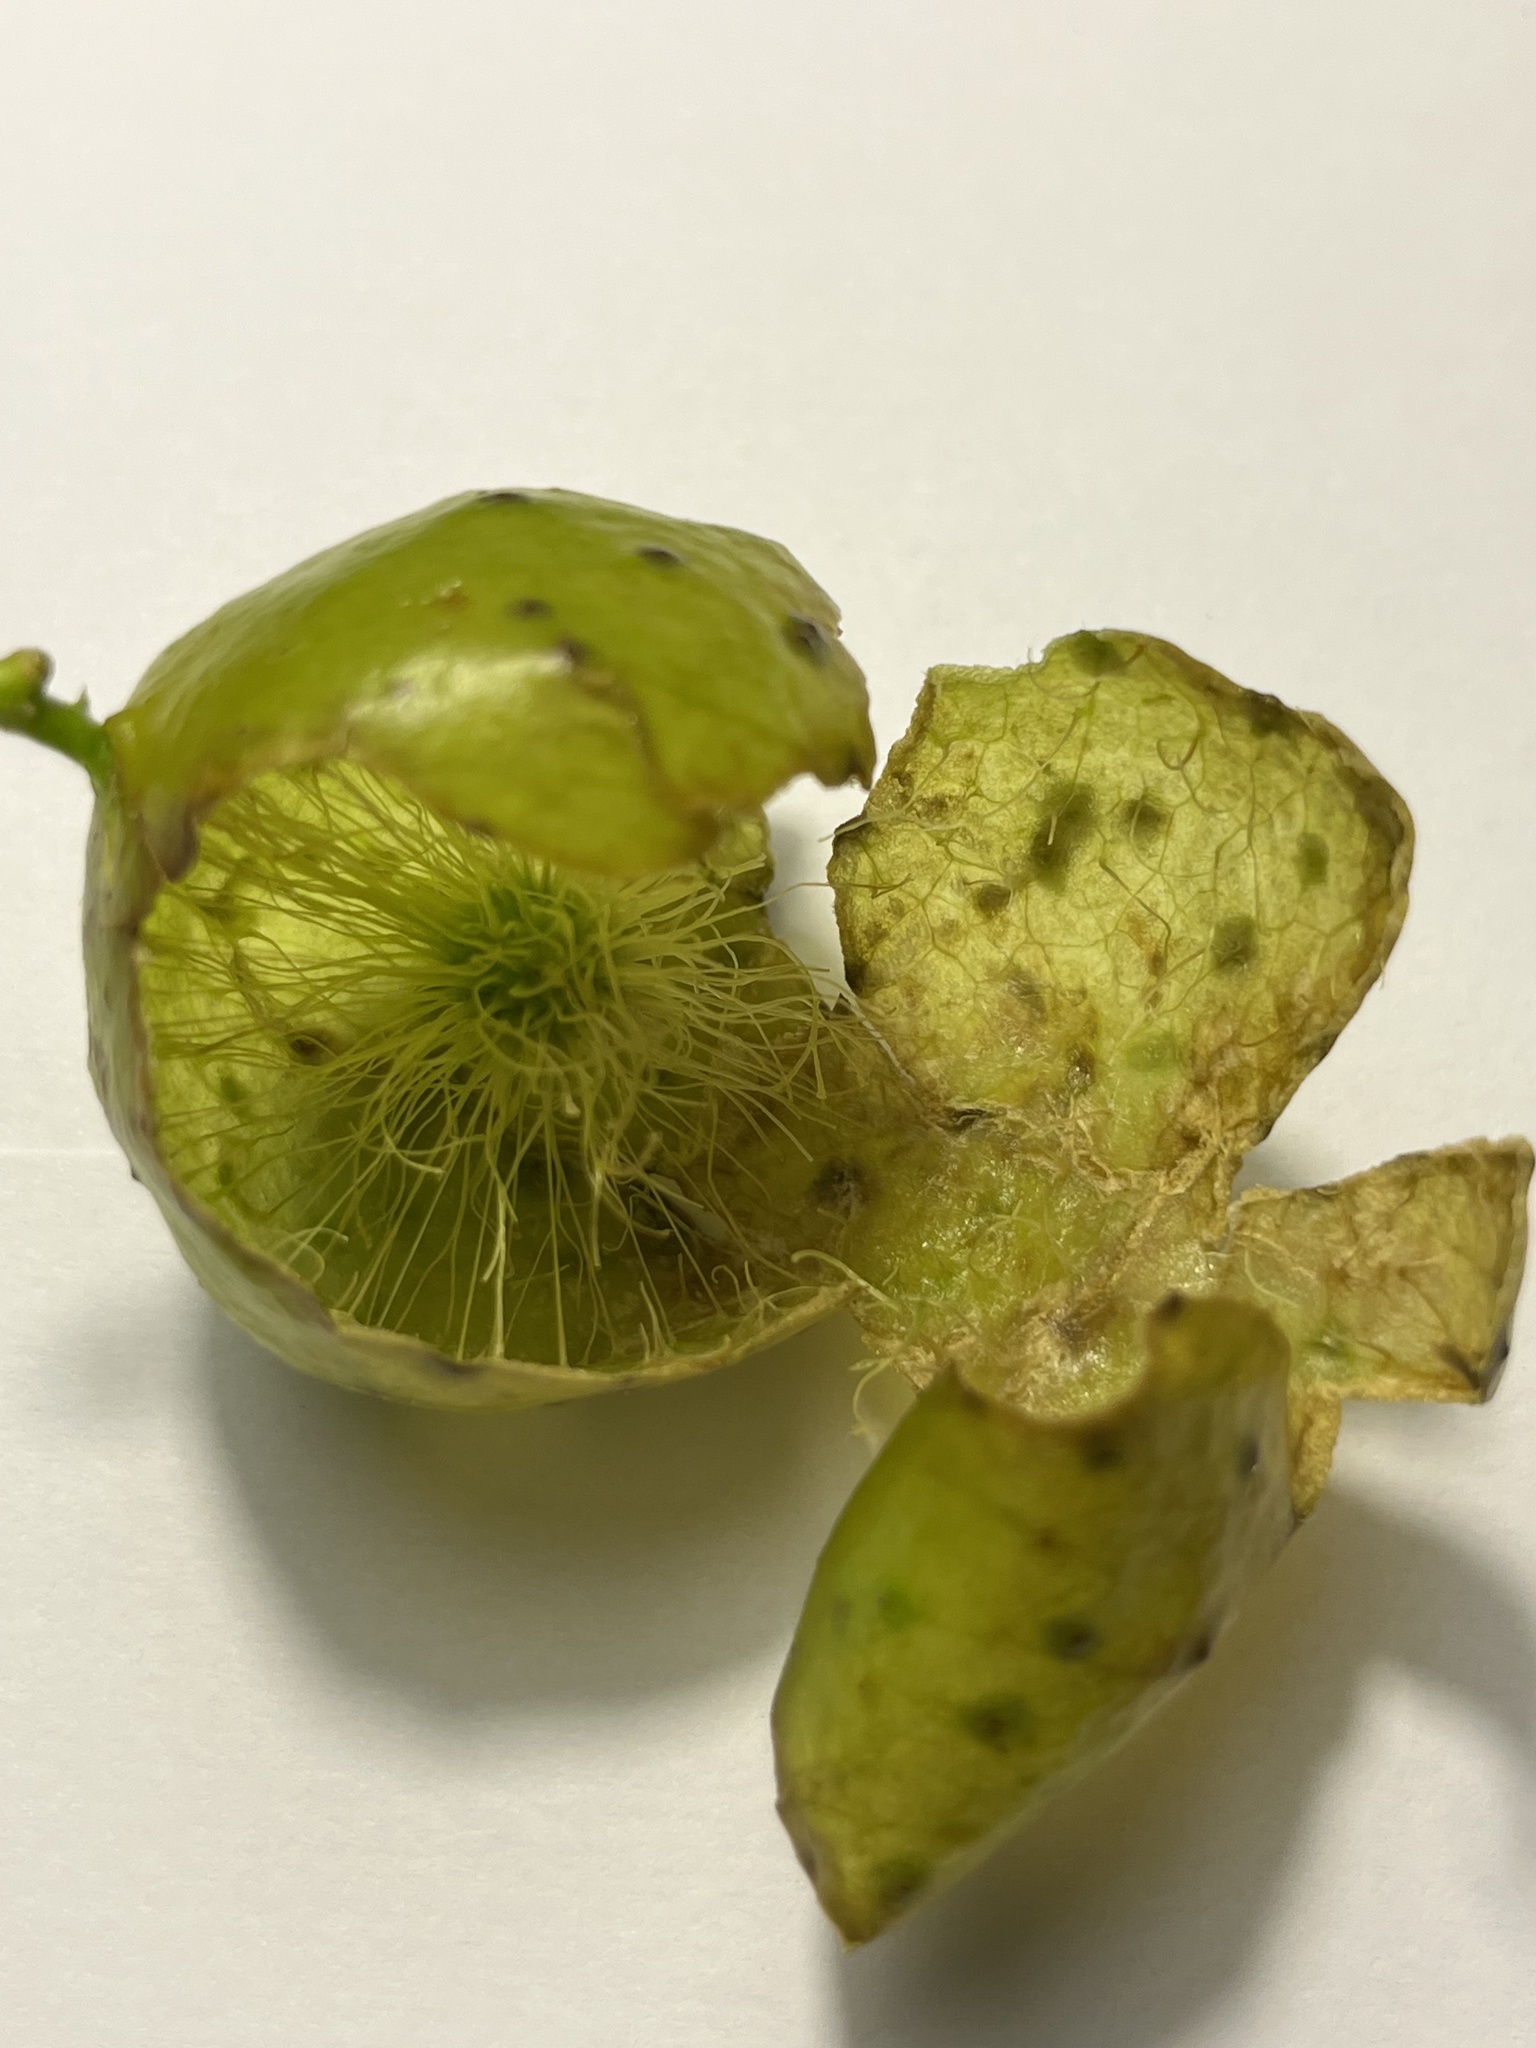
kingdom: Animalia
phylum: Arthropoda
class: Insecta
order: Hymenoptera
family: Cynipidae
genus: Amphibolips
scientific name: Amphibolips
